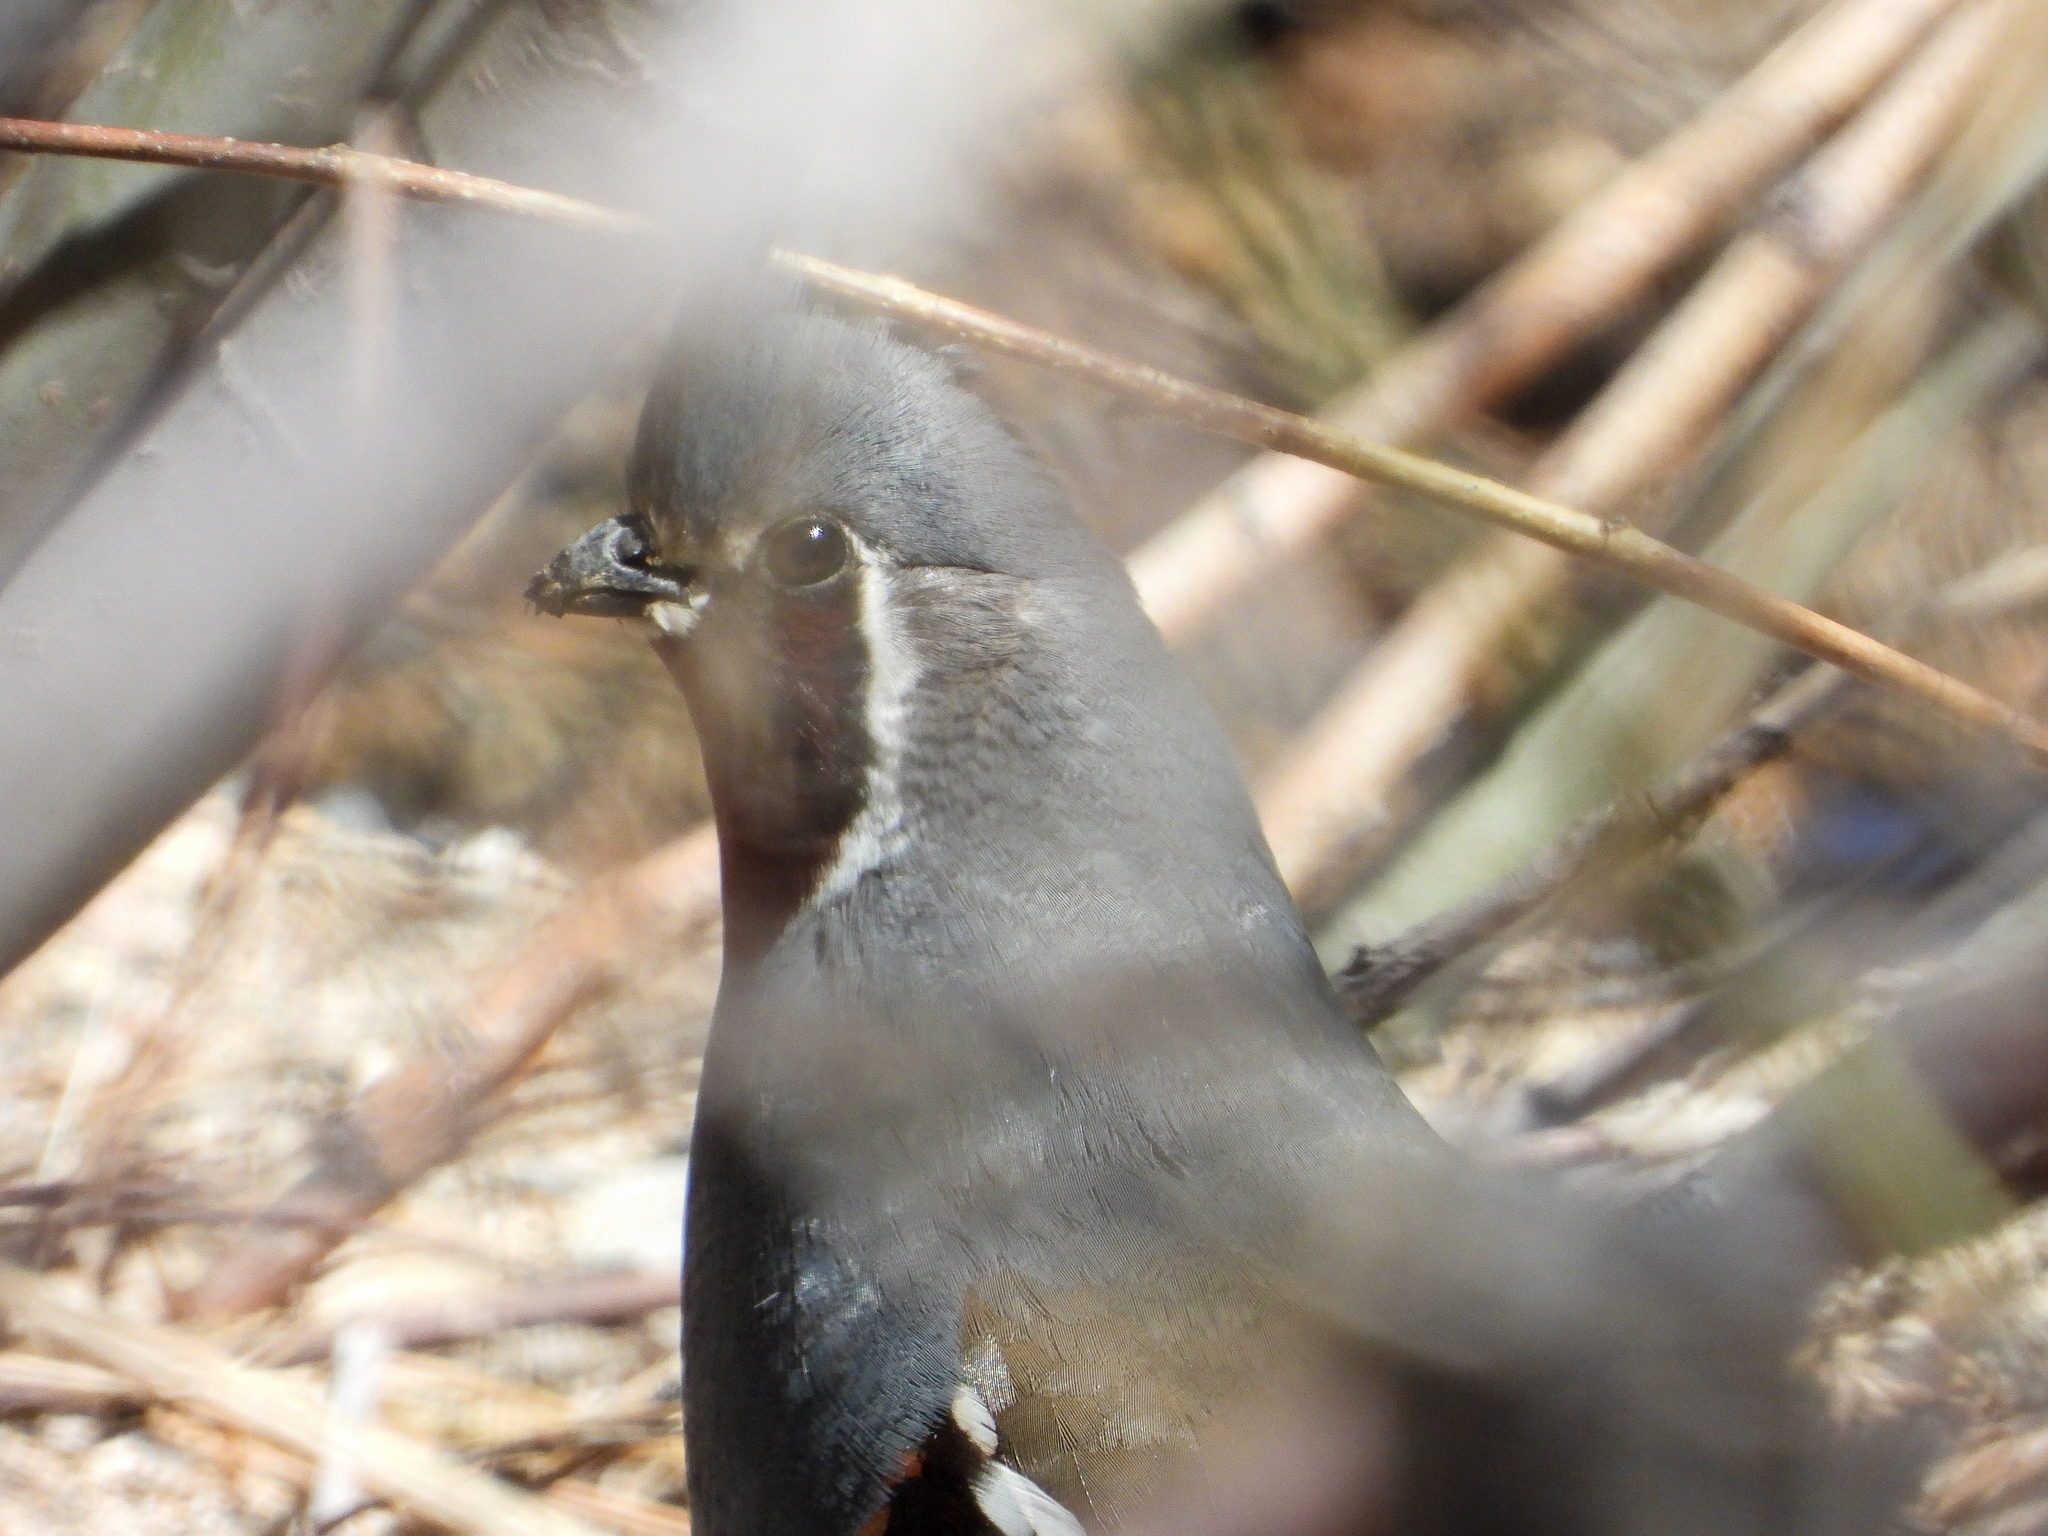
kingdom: Animalia
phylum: Chordata
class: Aves
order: Galliformes
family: Odontophoridae
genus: Oreortyx
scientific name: Oreortyx pictus
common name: Mountain quail
